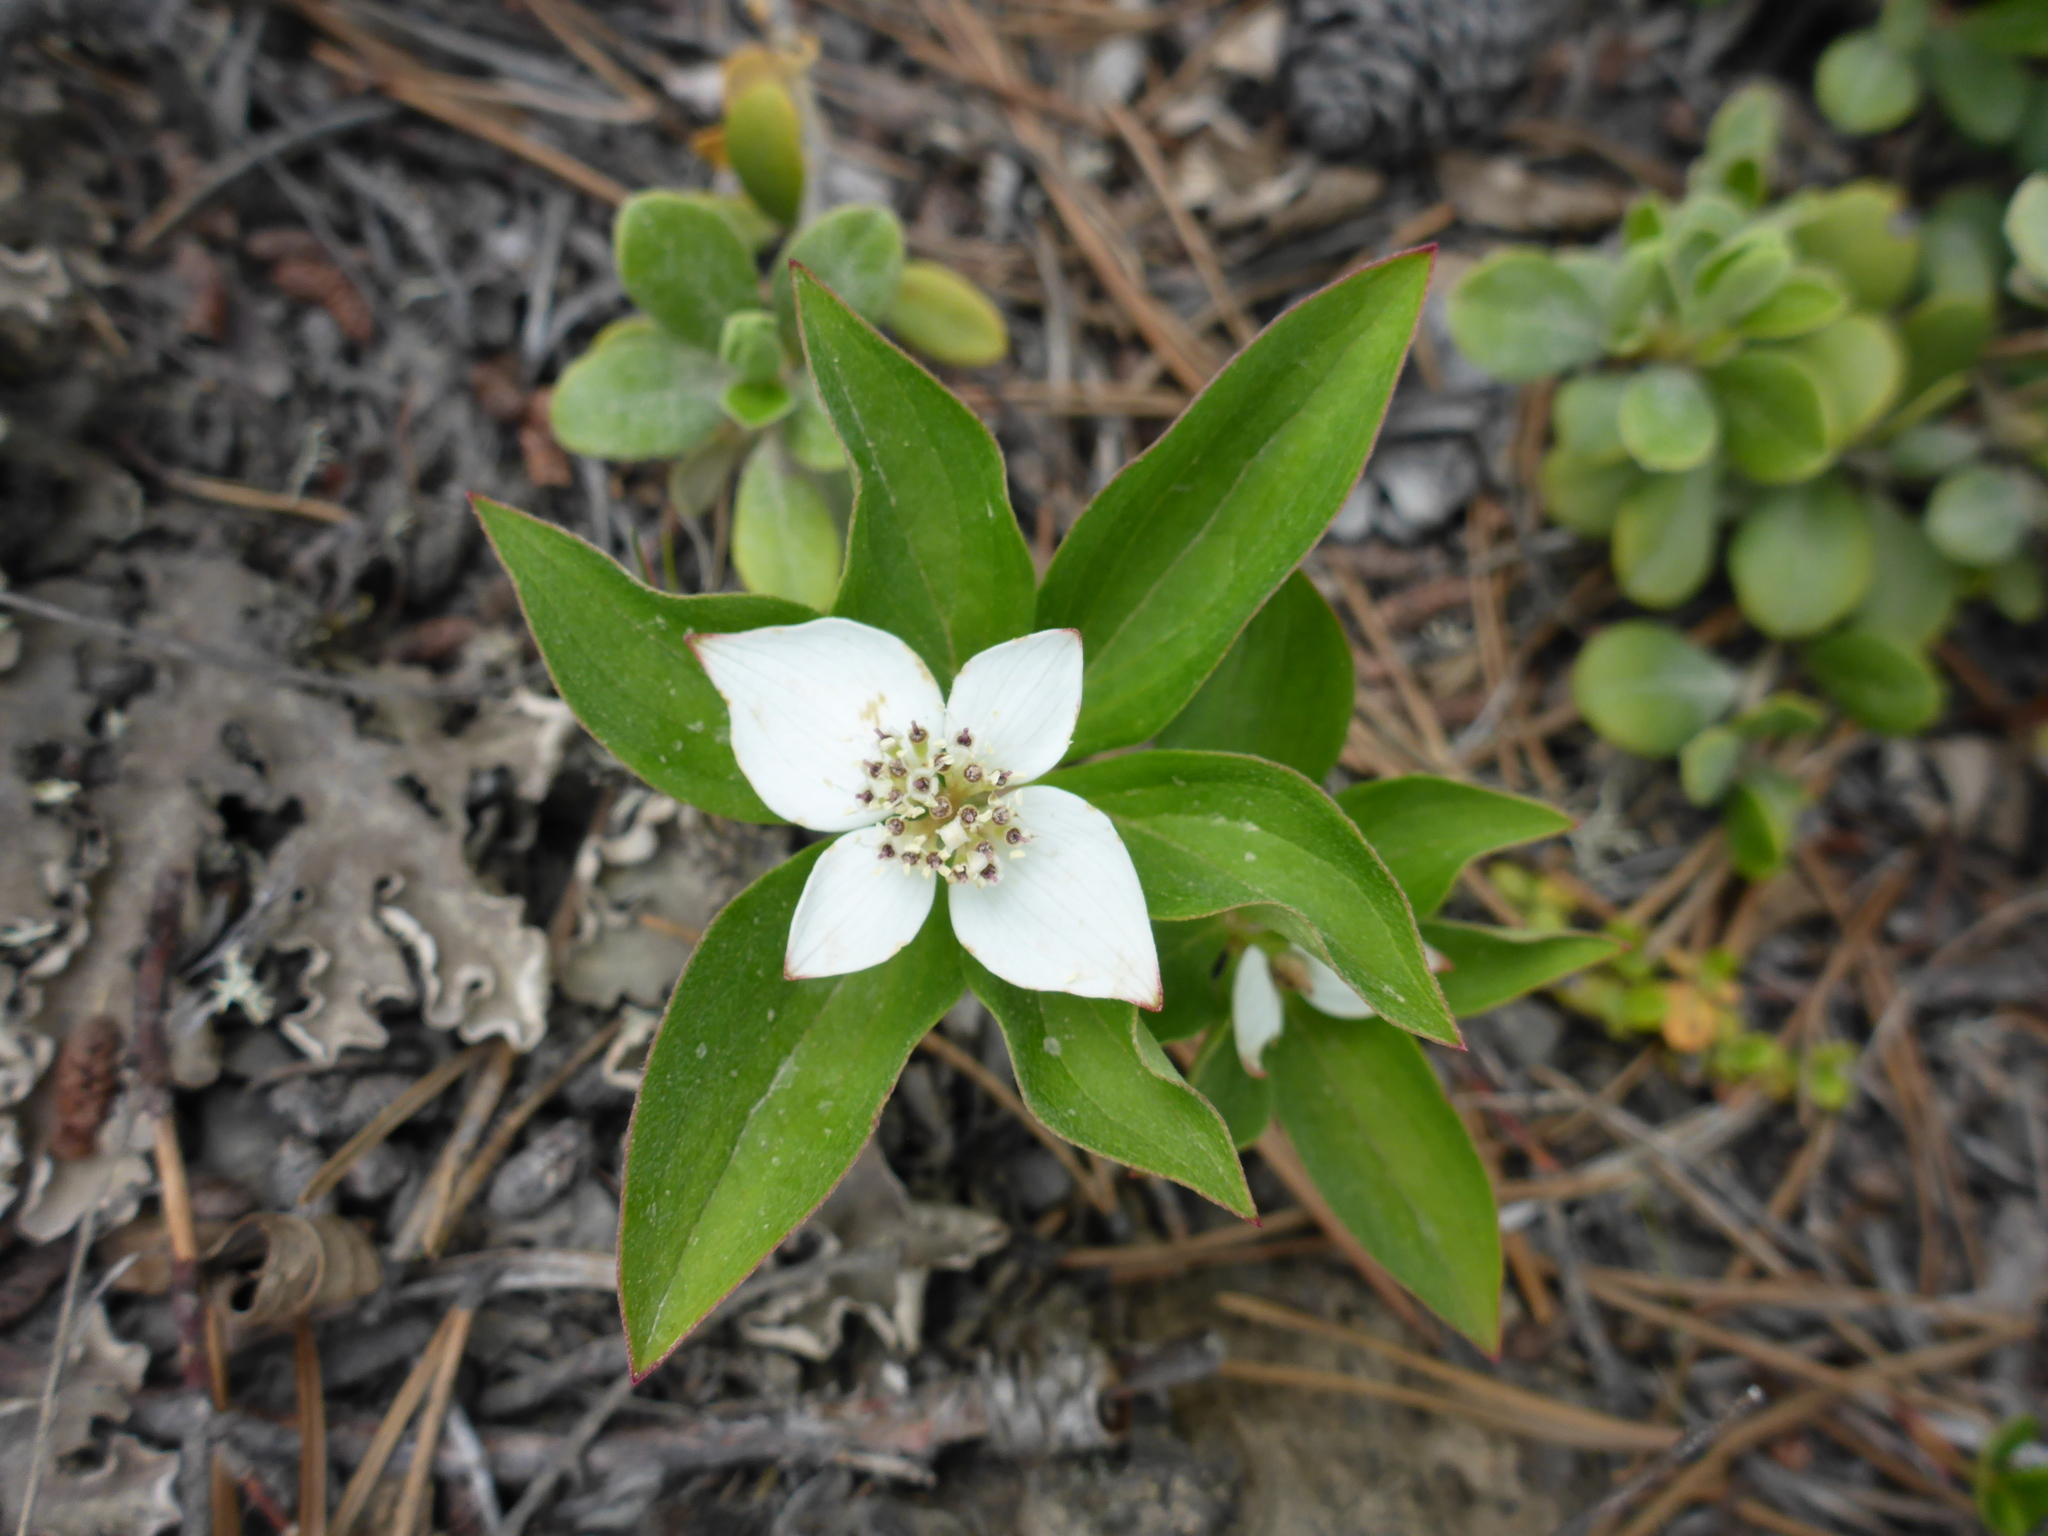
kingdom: Plantae
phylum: Tracheophyta
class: Magnoliopsida
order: Cornales
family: Cornaceae
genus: Cornus
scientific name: Cornus canadensis
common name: Creeping dogwood
